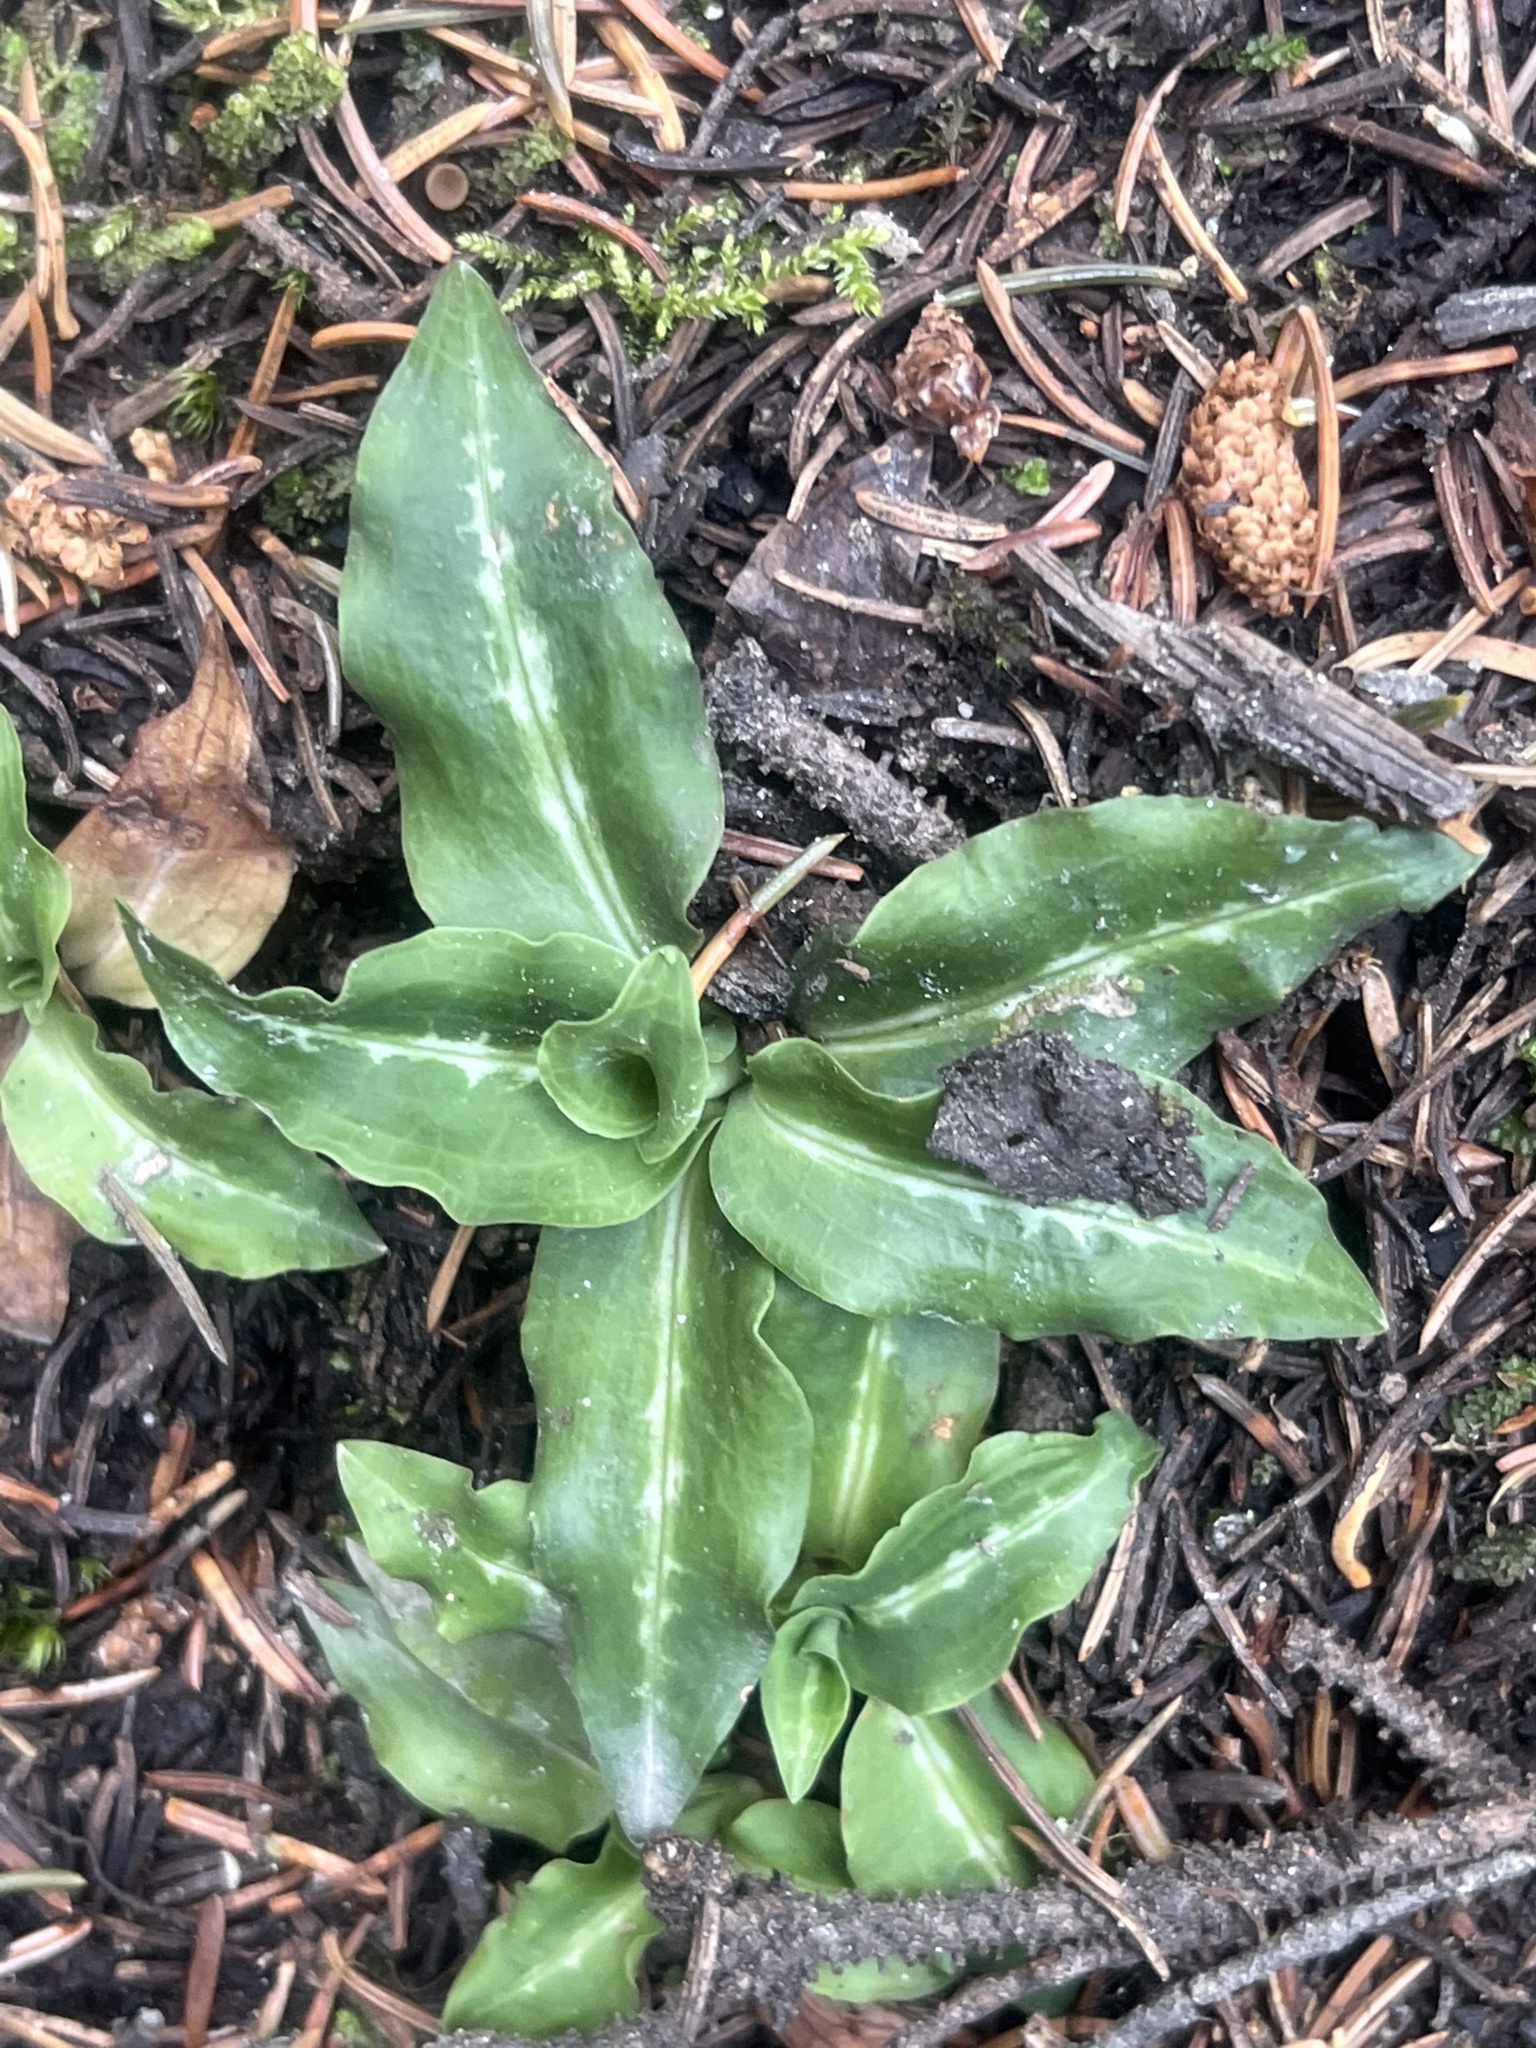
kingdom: Plantae
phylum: Tracheophyta
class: Liliopsida
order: Asparagales
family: Orchidaceae
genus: Goodyera
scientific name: Goodyera oblongifolia
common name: Giant rattlesnake-plantain
